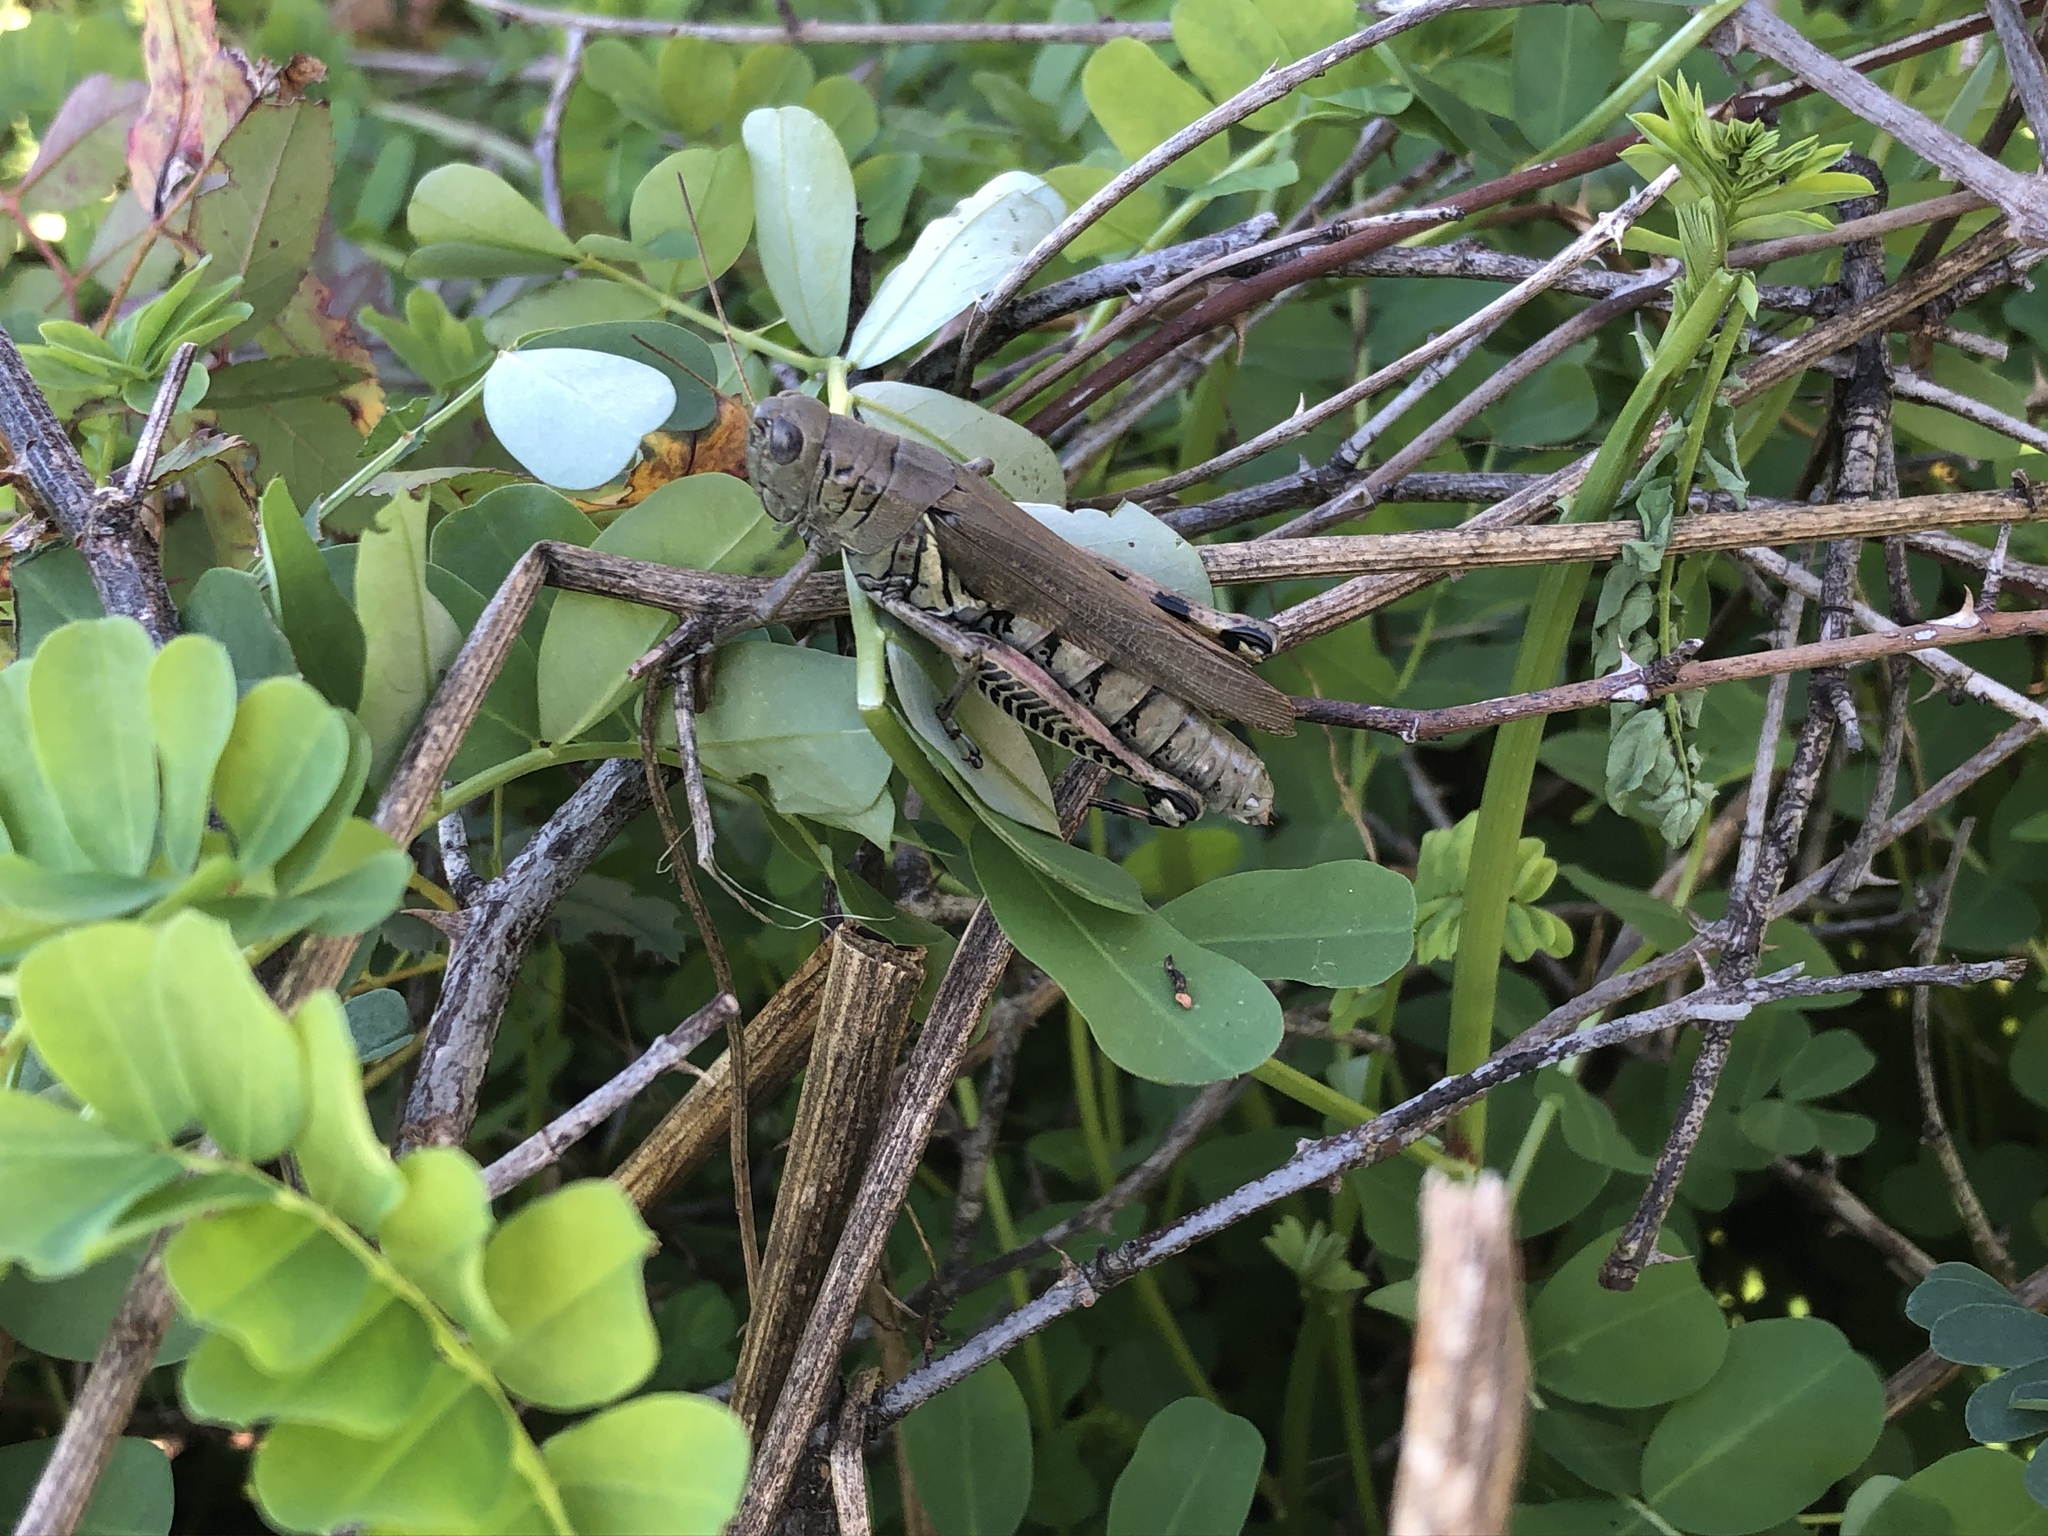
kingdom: Animalia
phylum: Arthropoda
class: Insecta
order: Orthoptera
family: Acrididae
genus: Melanoplus
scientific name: Melanoplus differentialis
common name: Differential grasshopper
